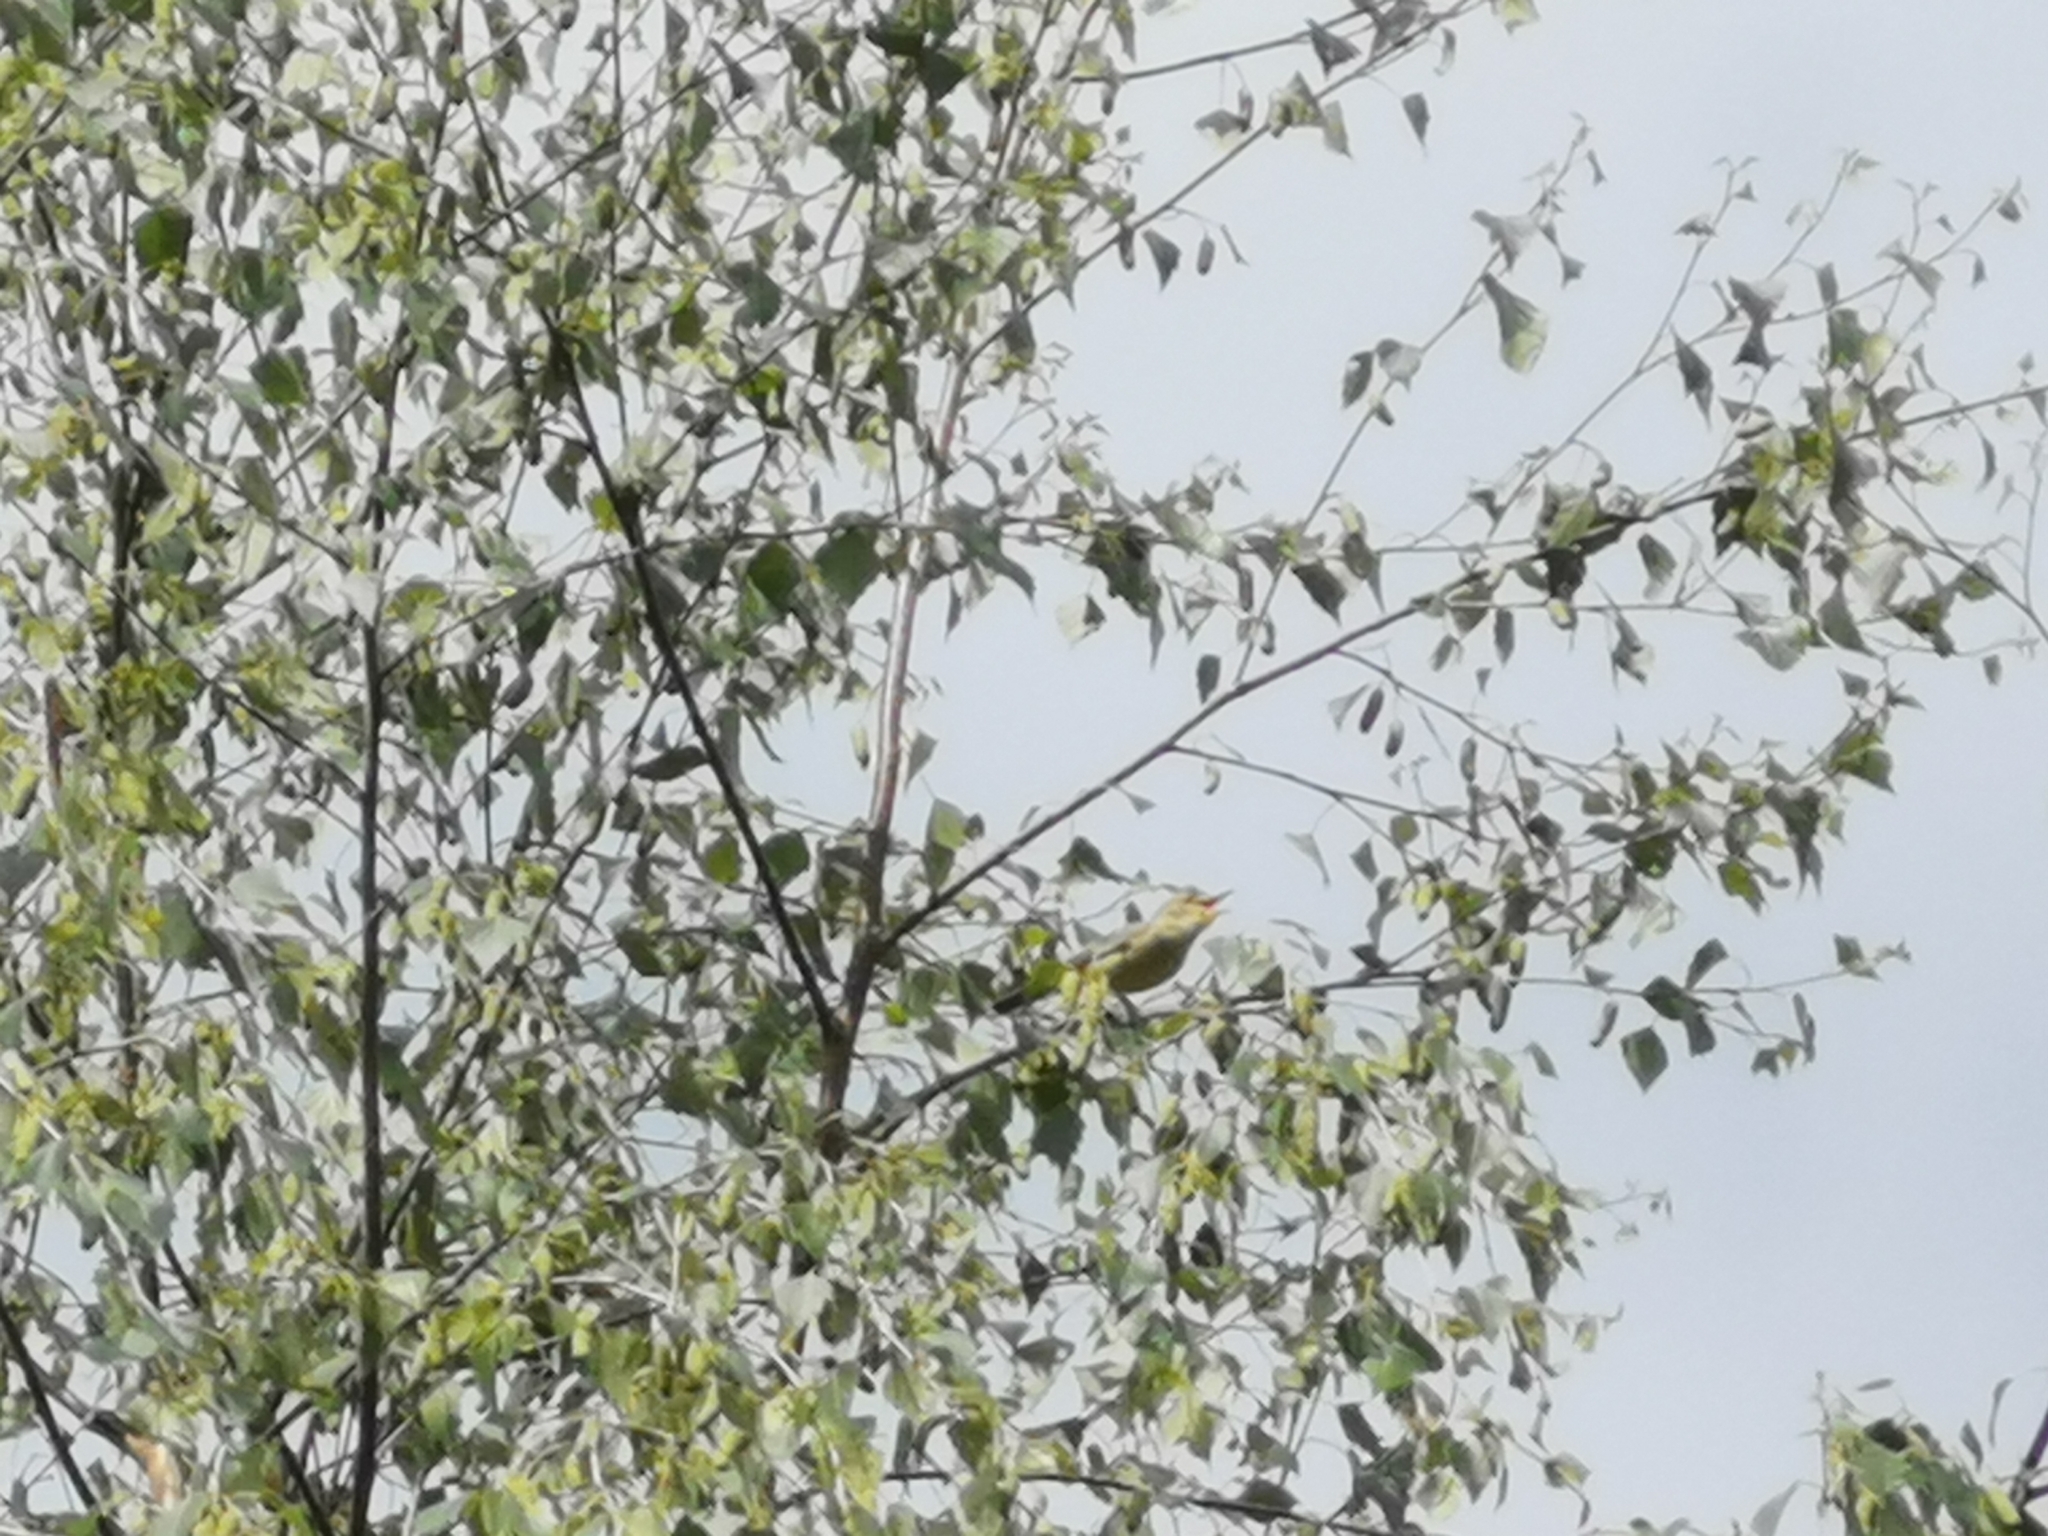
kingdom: Animalia
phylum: Chordata
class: Aves
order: Passeriformes
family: Acrocephalidae
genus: Hippolais
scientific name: Hippolais icterina
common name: Icterine warbler
